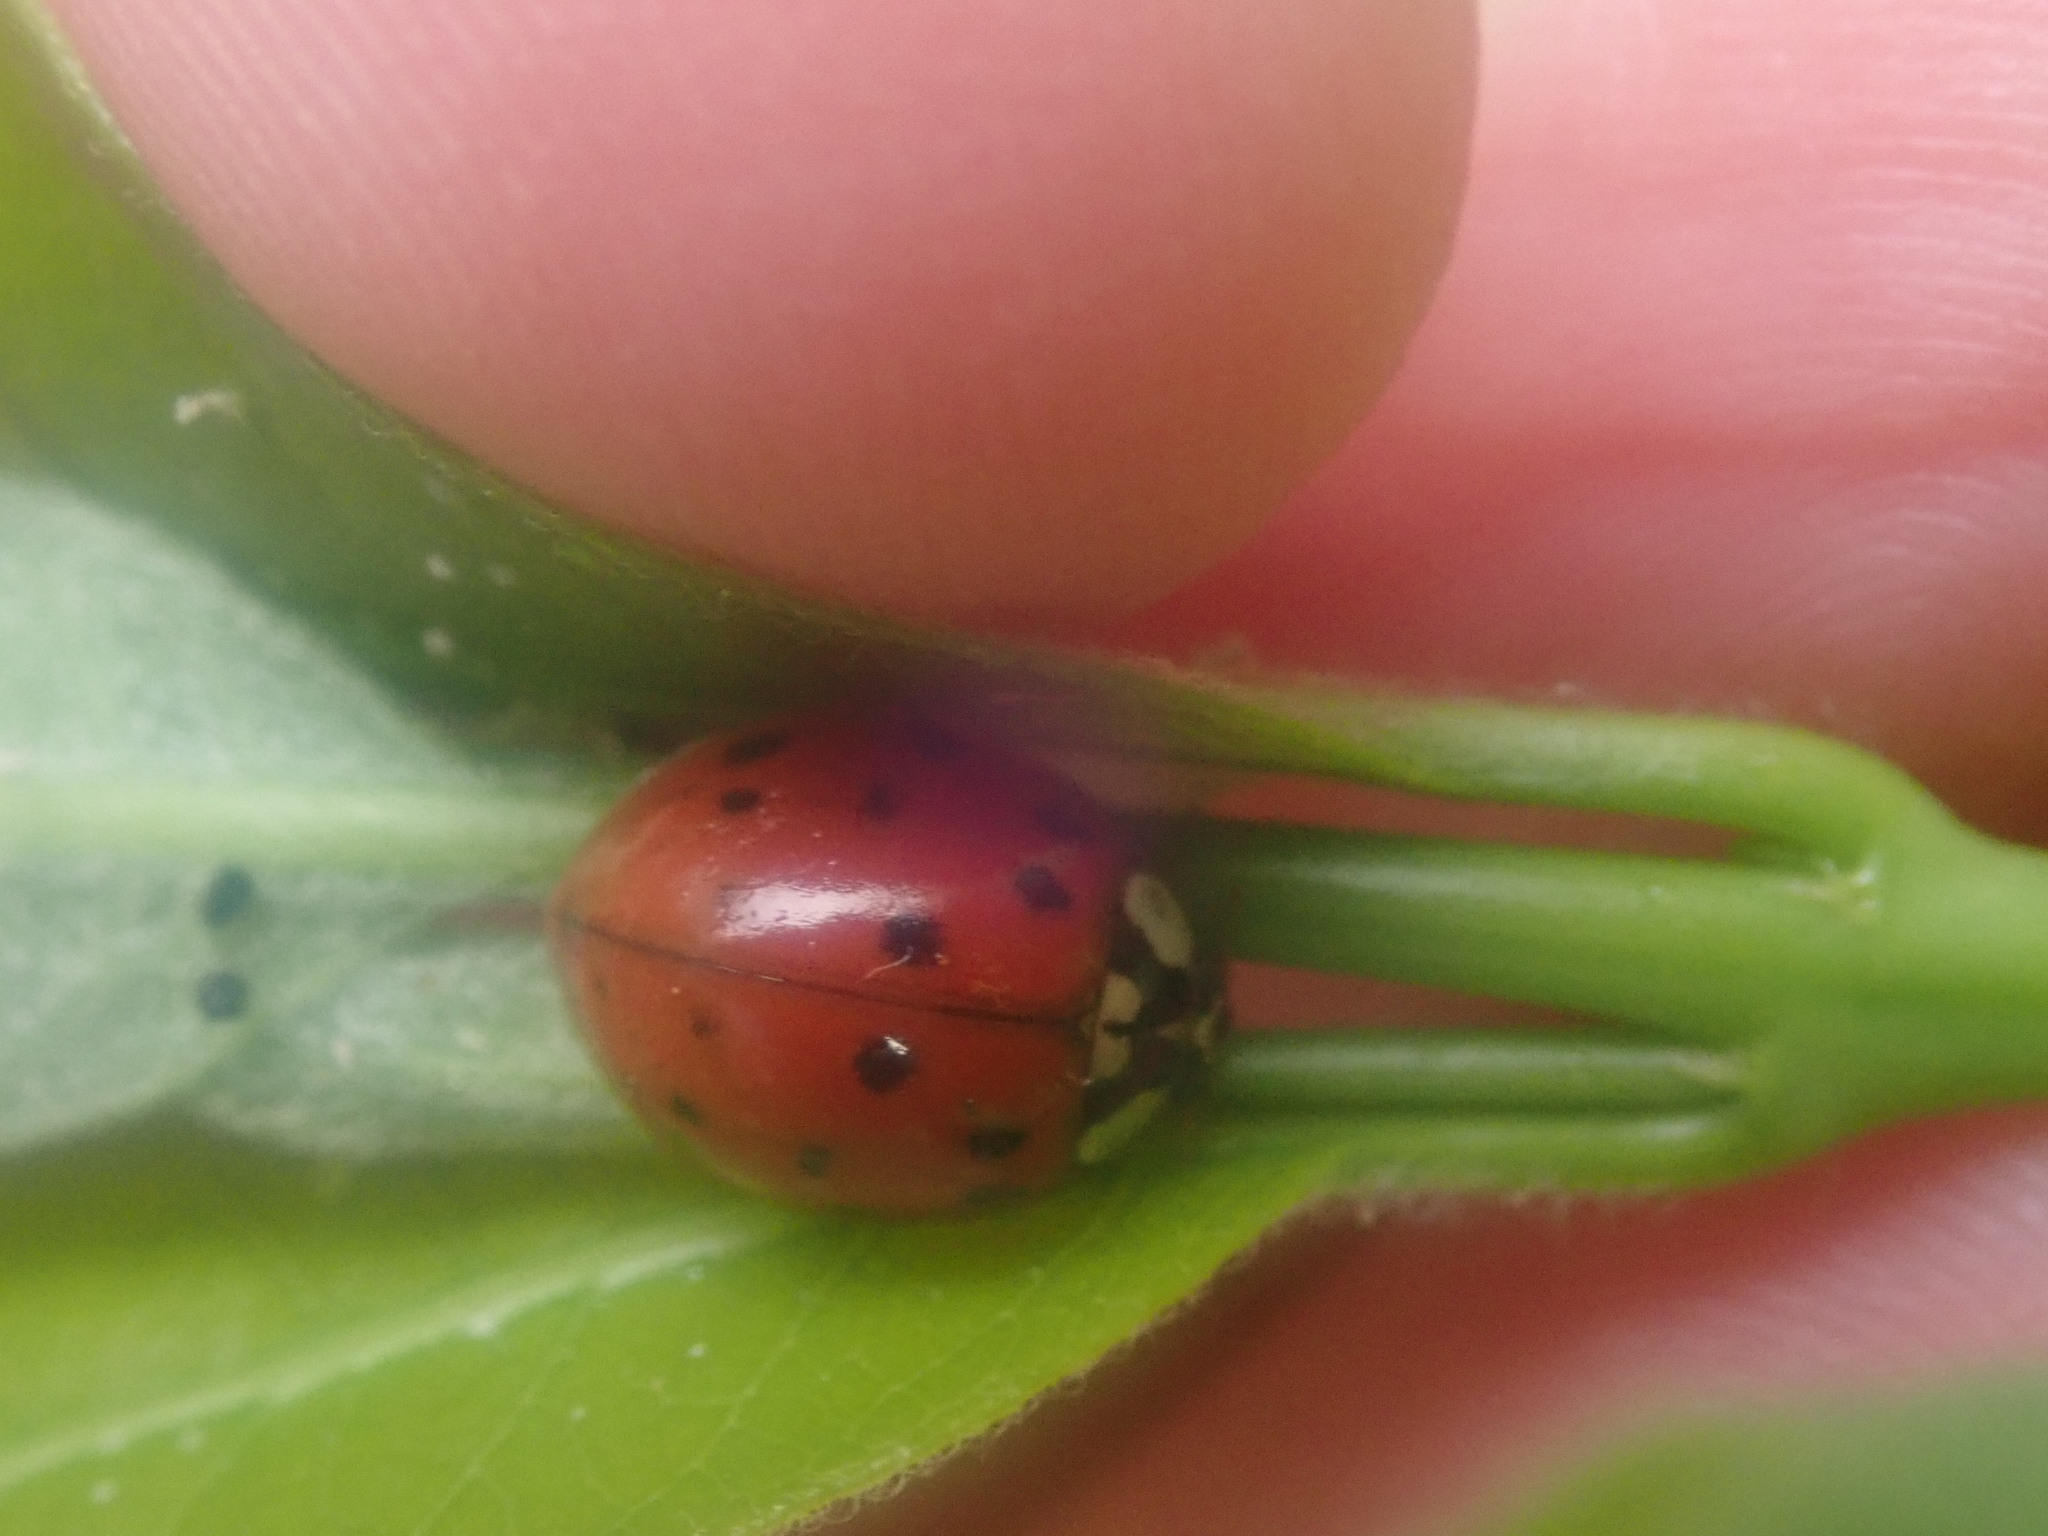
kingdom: Animalia
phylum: Arthropoda
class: Insecta
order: Coleoptera
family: Coccinellidae
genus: Harmonia
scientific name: Harmonia axyridis
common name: Harlequin ladybird
